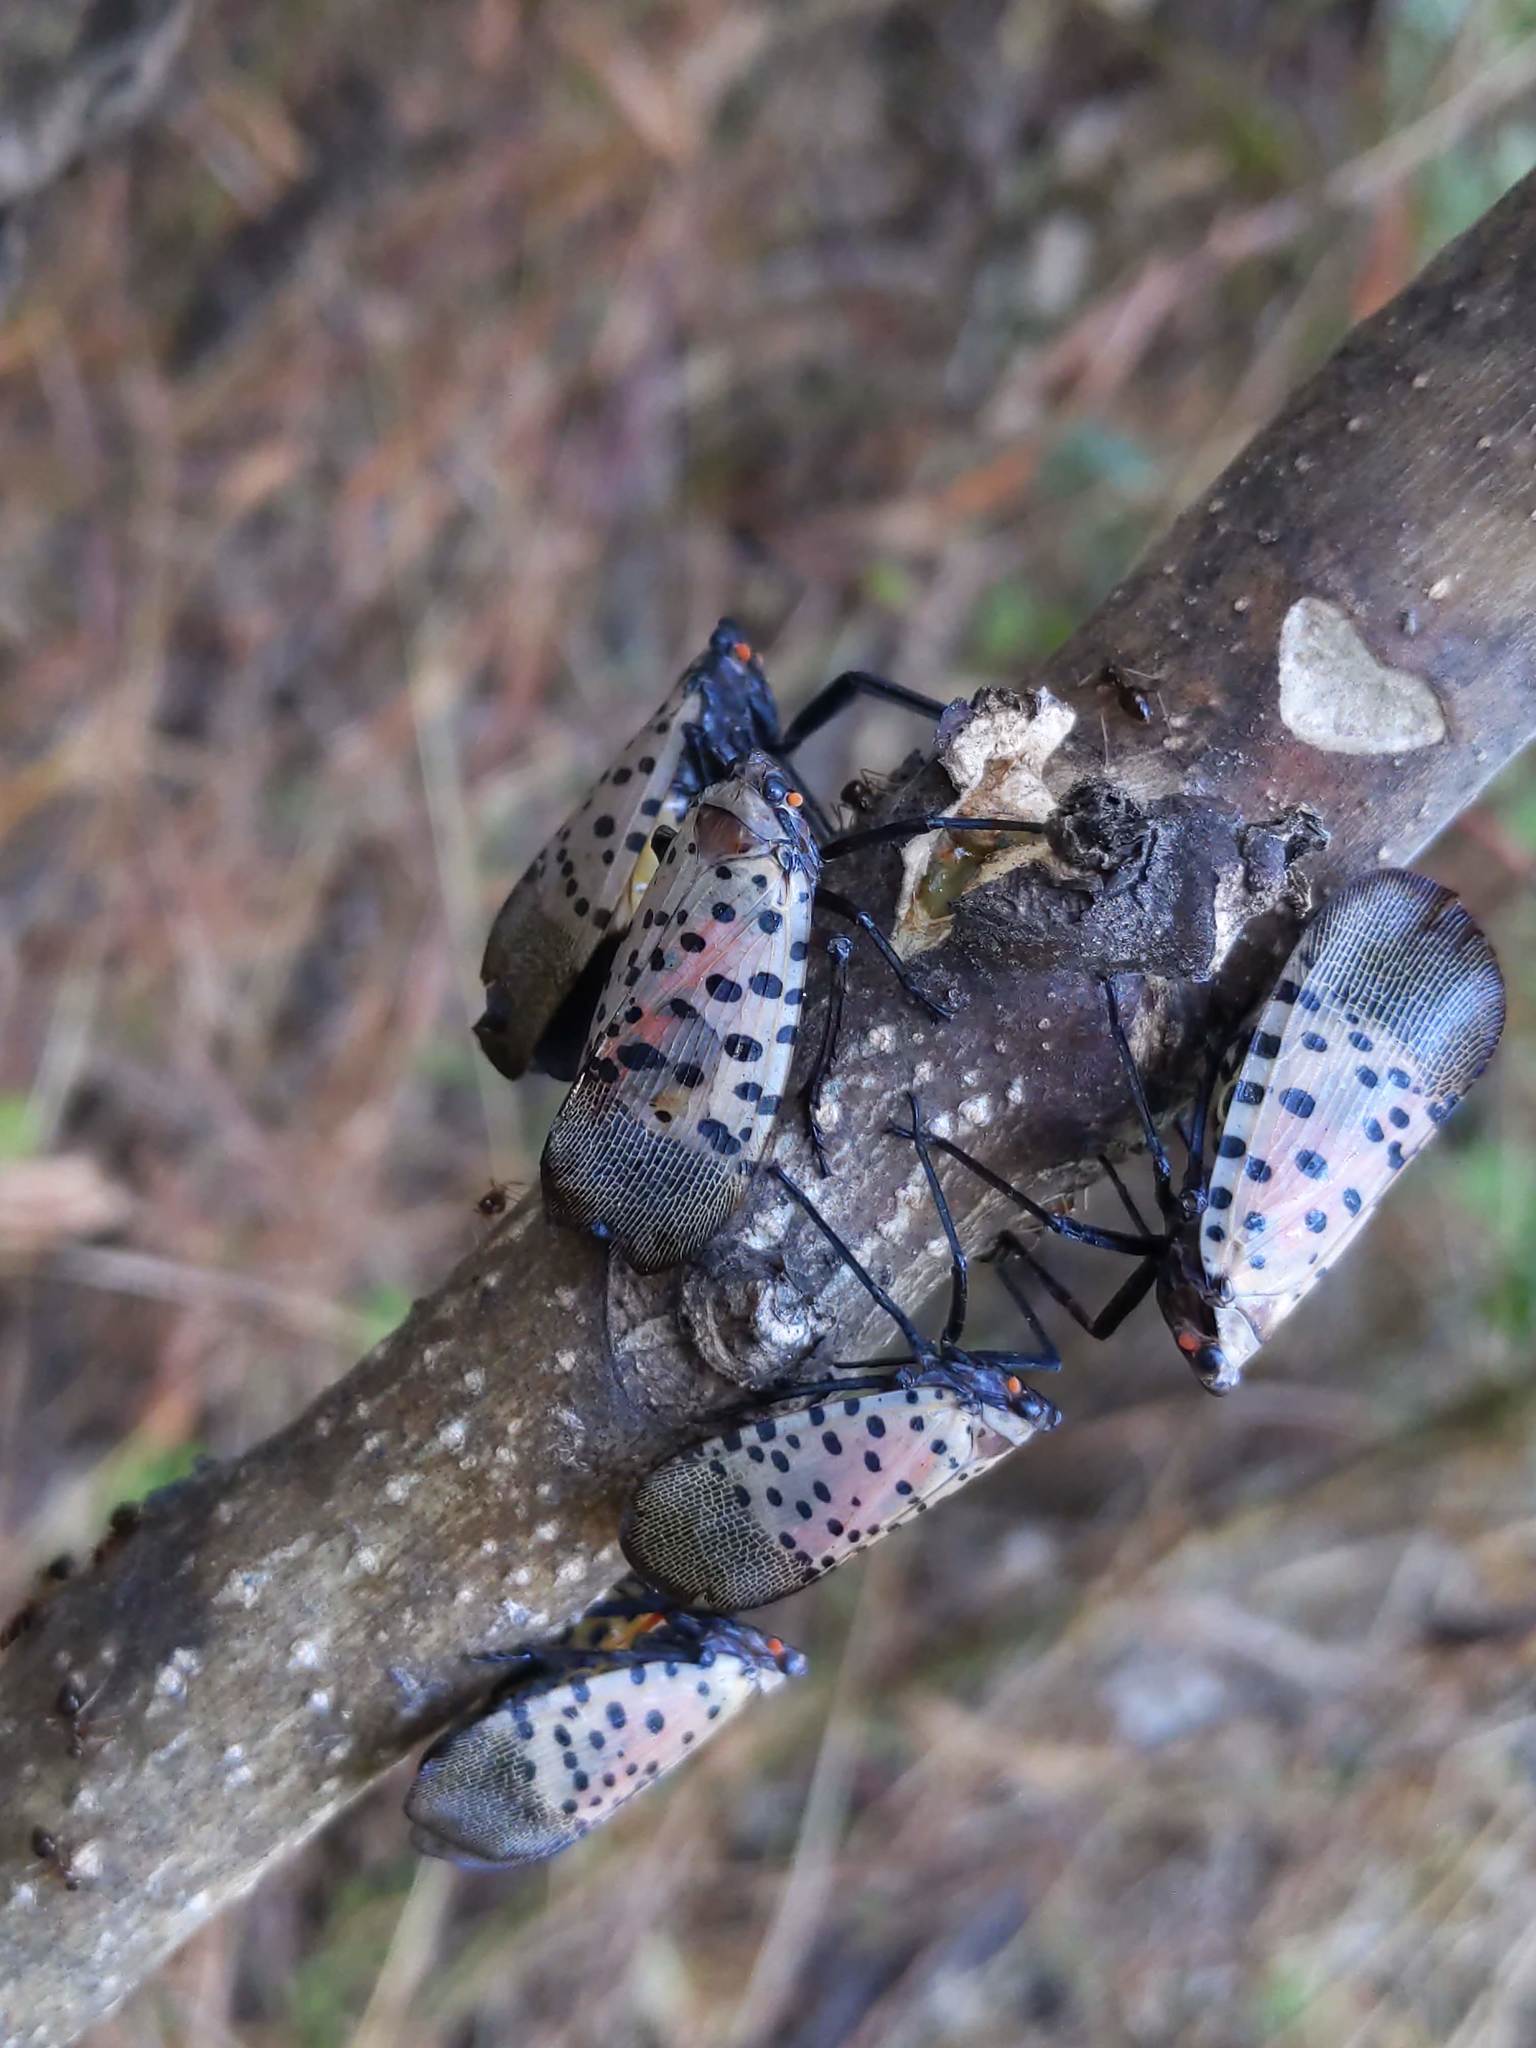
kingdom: Animalia
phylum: Arthropoda
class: Insecta
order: Hemiptera
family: Fulgoridae
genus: Lycorma
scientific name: Lycorma delicatula
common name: Spotted lanternfly
